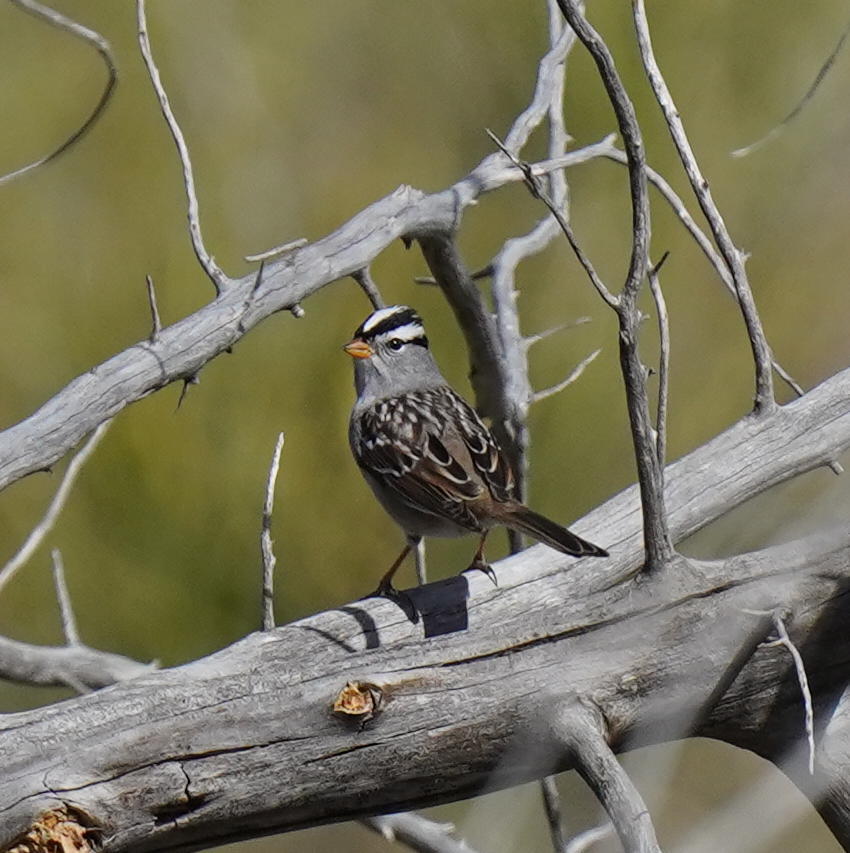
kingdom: Animalia
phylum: Chordata
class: Aves
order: Passeriformes
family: Passerellidae
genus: Zonotrichia
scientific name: Zonotrichia leucophrys
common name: White-crowned sparrow
